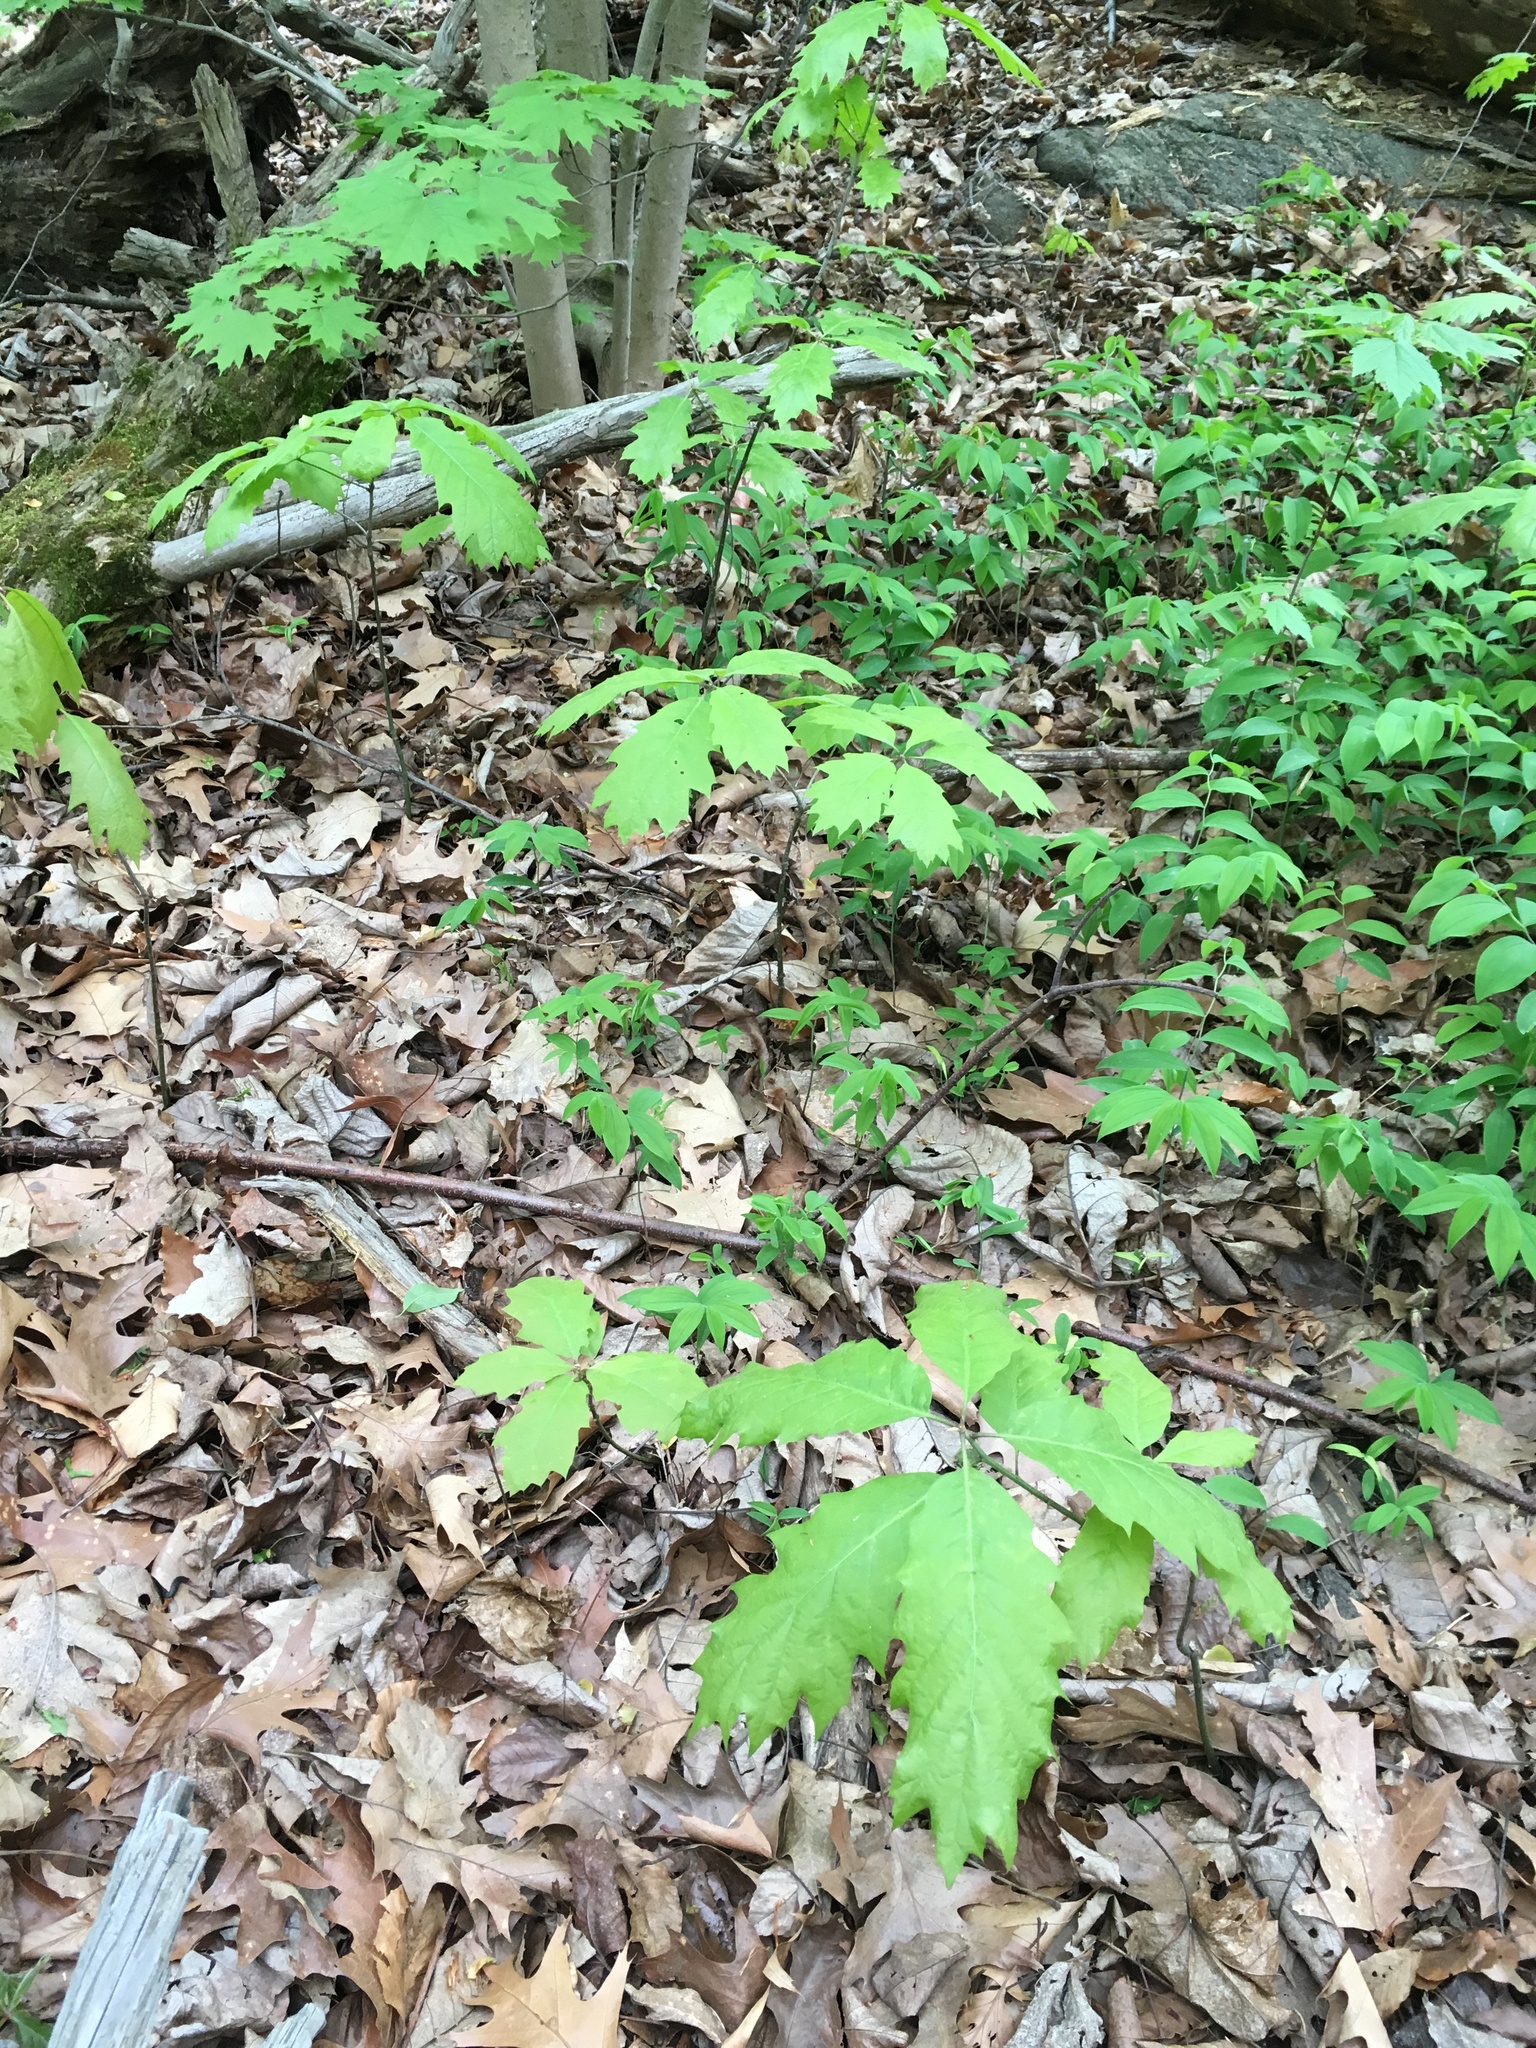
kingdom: Plantae
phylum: Tracheophyta
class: Magnoliopsida
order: Fagales
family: Fagaceae
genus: Quercus
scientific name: Quercus rubra
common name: Red oak
